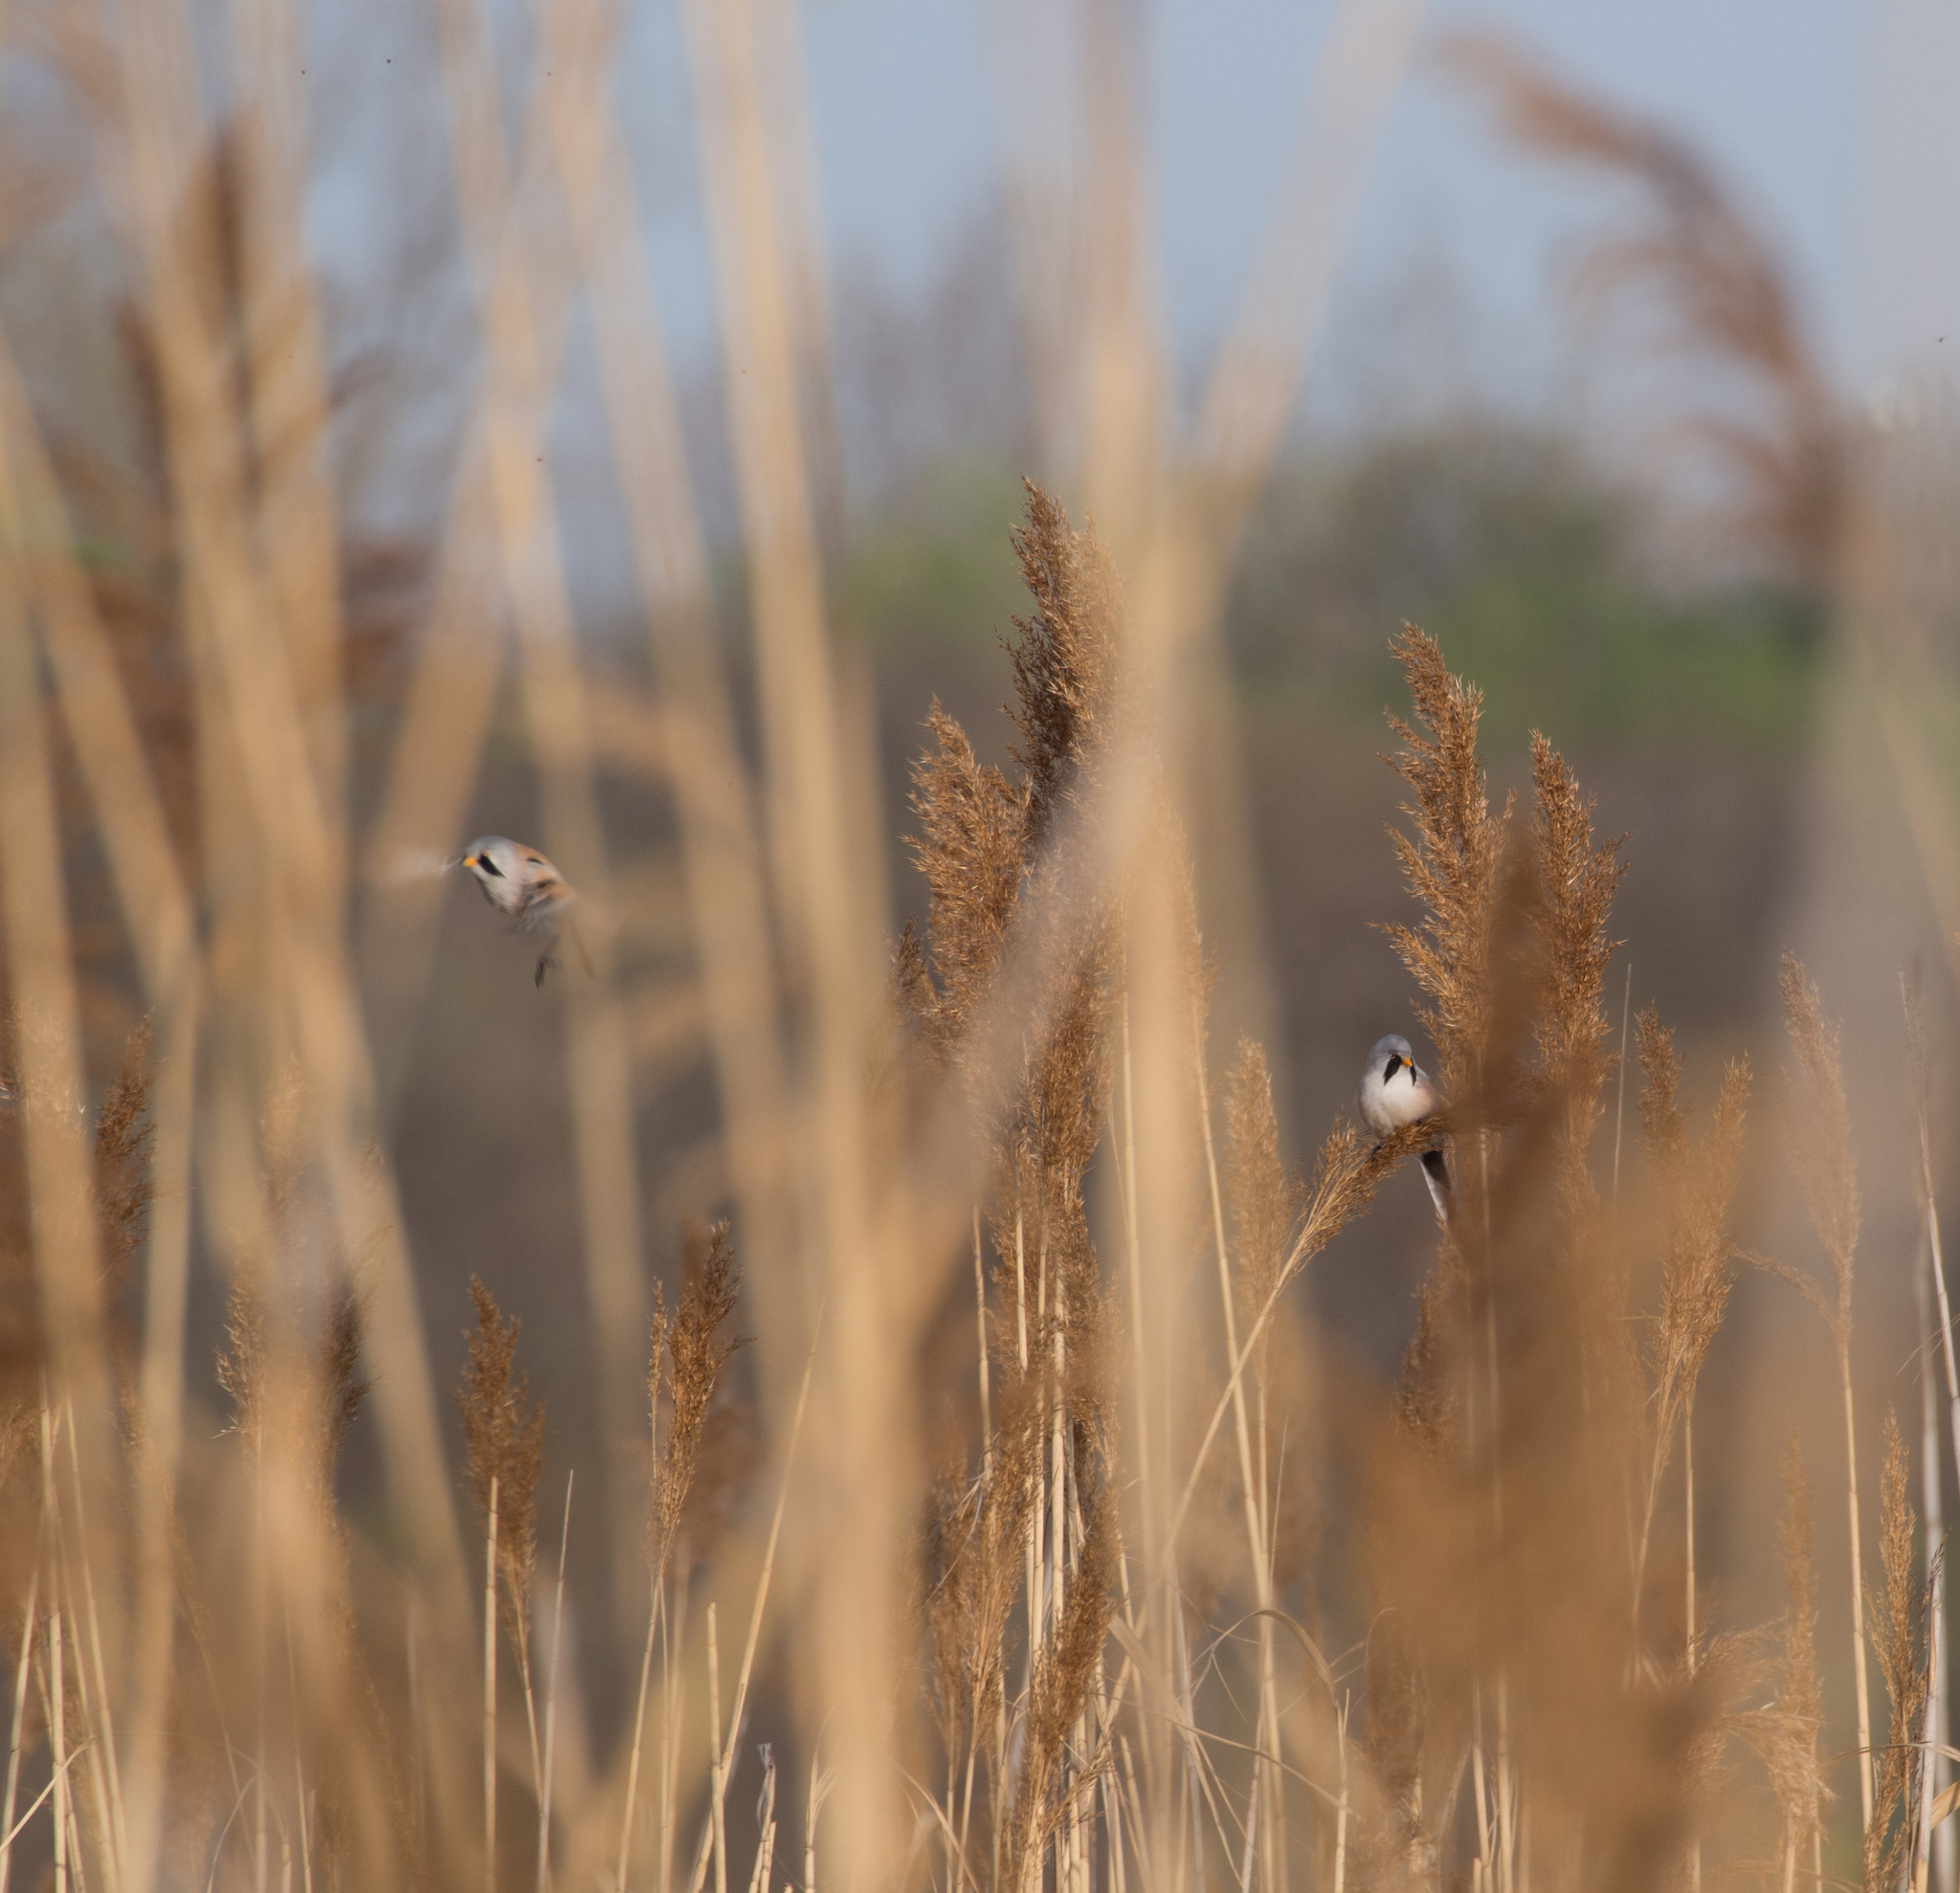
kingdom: Animalia
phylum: Chordata
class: Aves
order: Passeriformes
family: Panuridae
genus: Panurus
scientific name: Panurus biarmicus
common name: Bearded reedling
